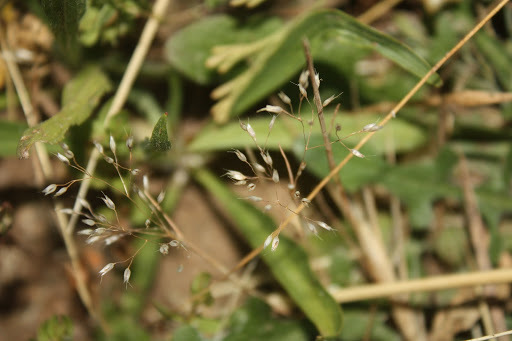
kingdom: Plantae
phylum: Tracheophyta
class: Liliopsida
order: Poales
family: Poaceae
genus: Aira
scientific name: Aira caryophyllea
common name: Silver hairgrass
